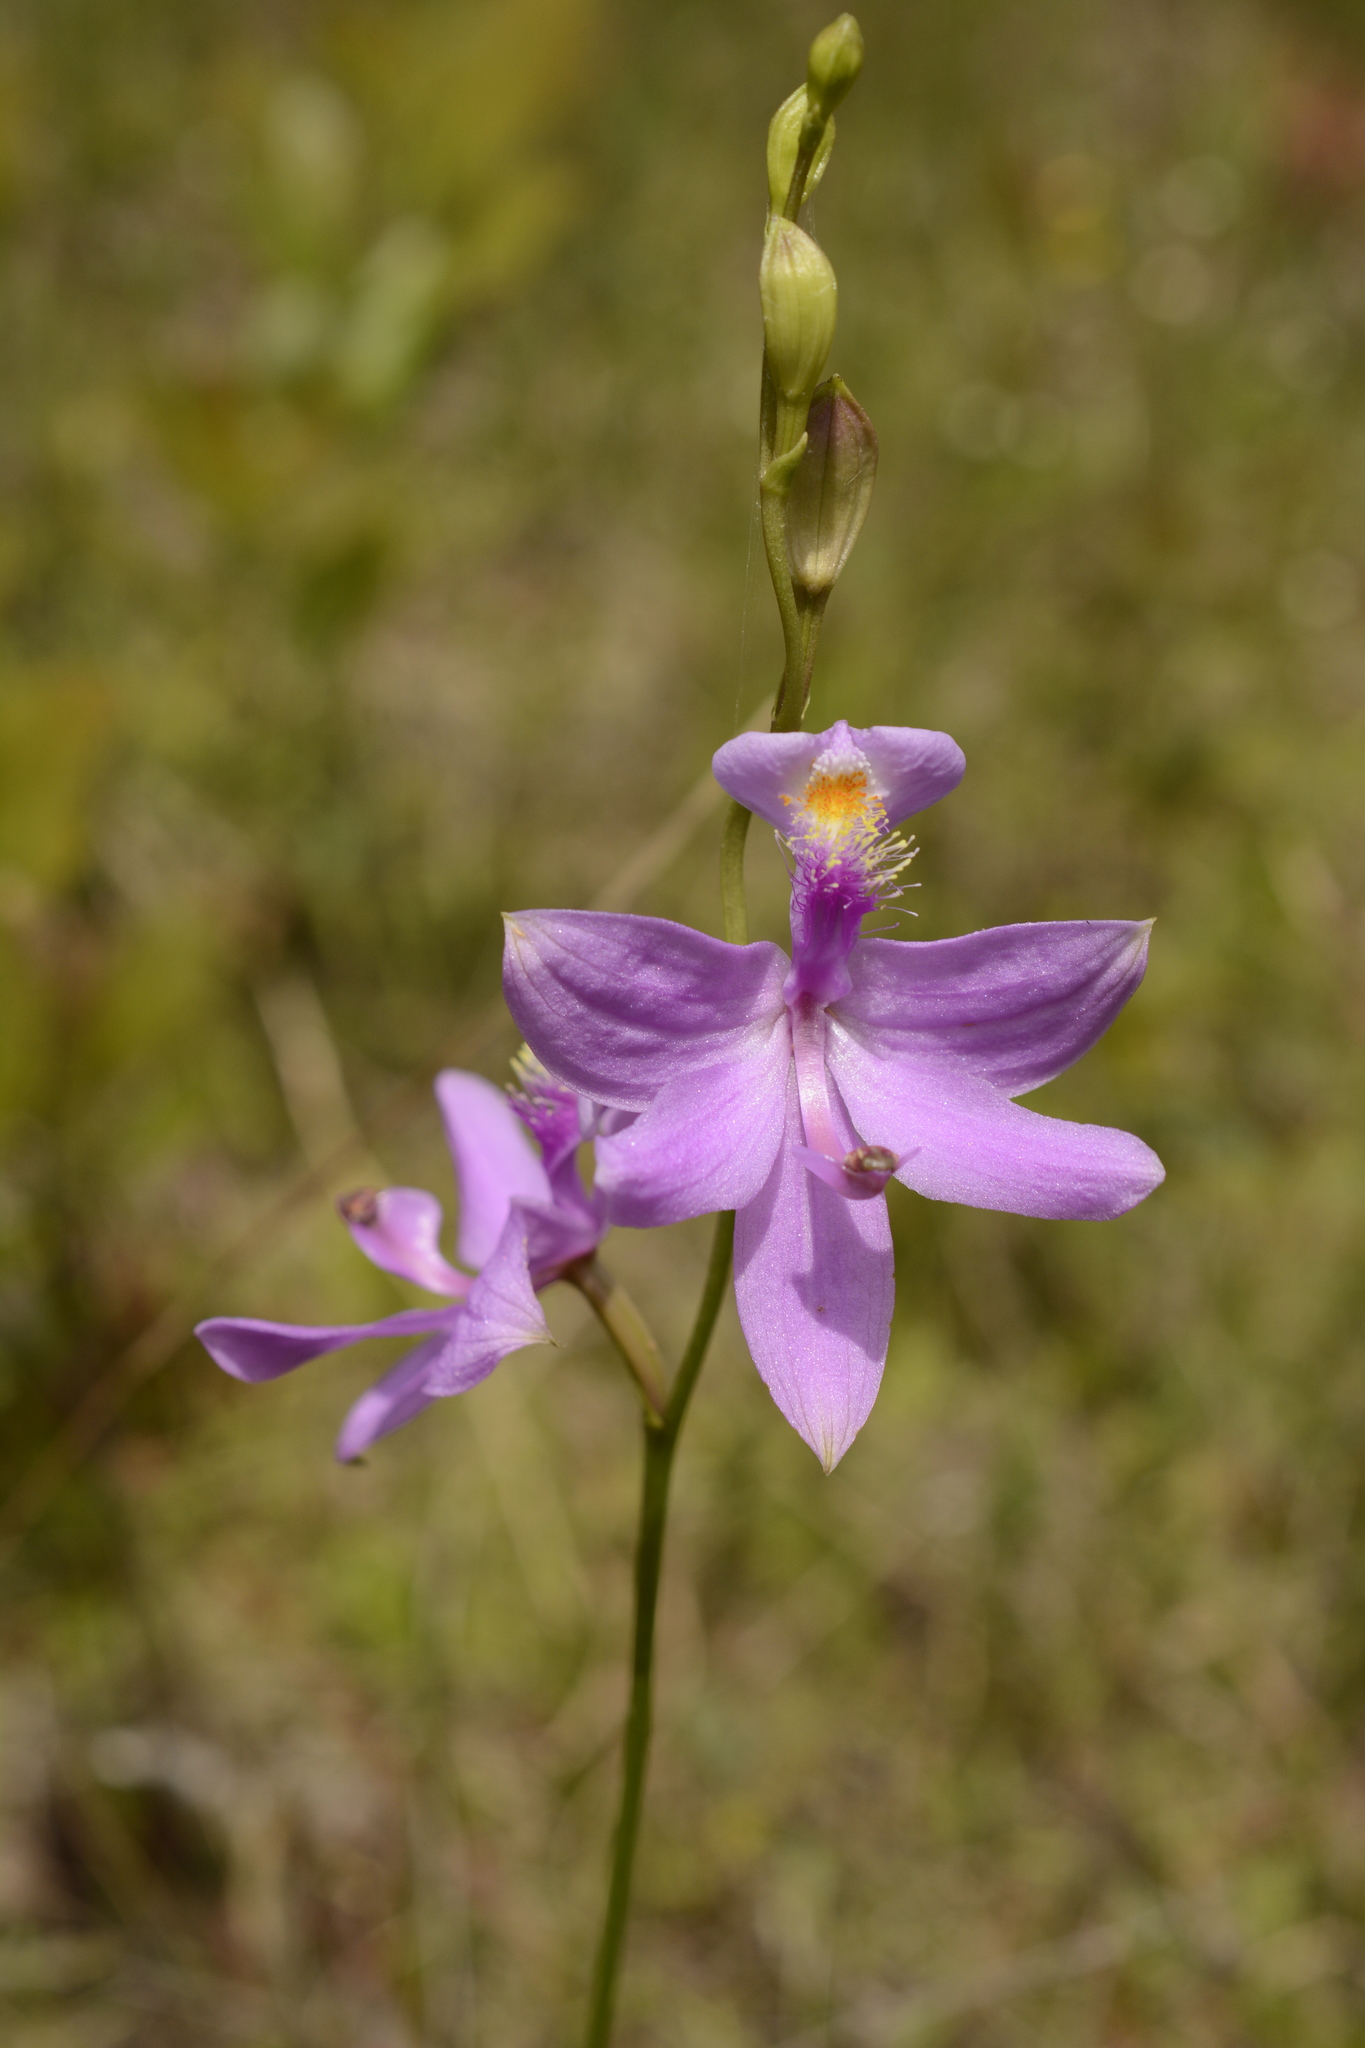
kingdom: Plantae
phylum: Tracheophyta
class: Liliopsida
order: Asparagales
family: Orchidaceae
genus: Calopogon
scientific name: Calopogon tuberosus
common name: Grass-pink
